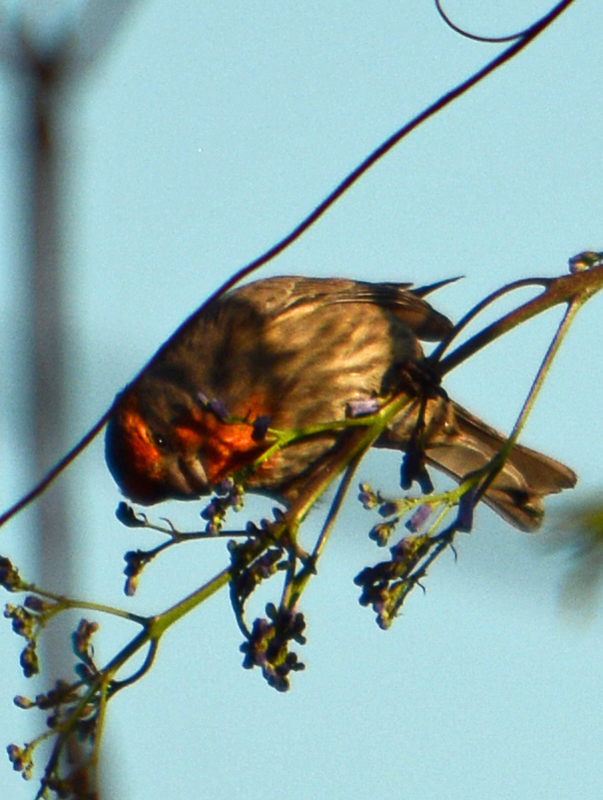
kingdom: Animalia
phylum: Chordata
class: Aves
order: Passeriformes
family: Fringillidae
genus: Haemorhous
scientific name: Haemorhous mexicanus
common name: House finch
